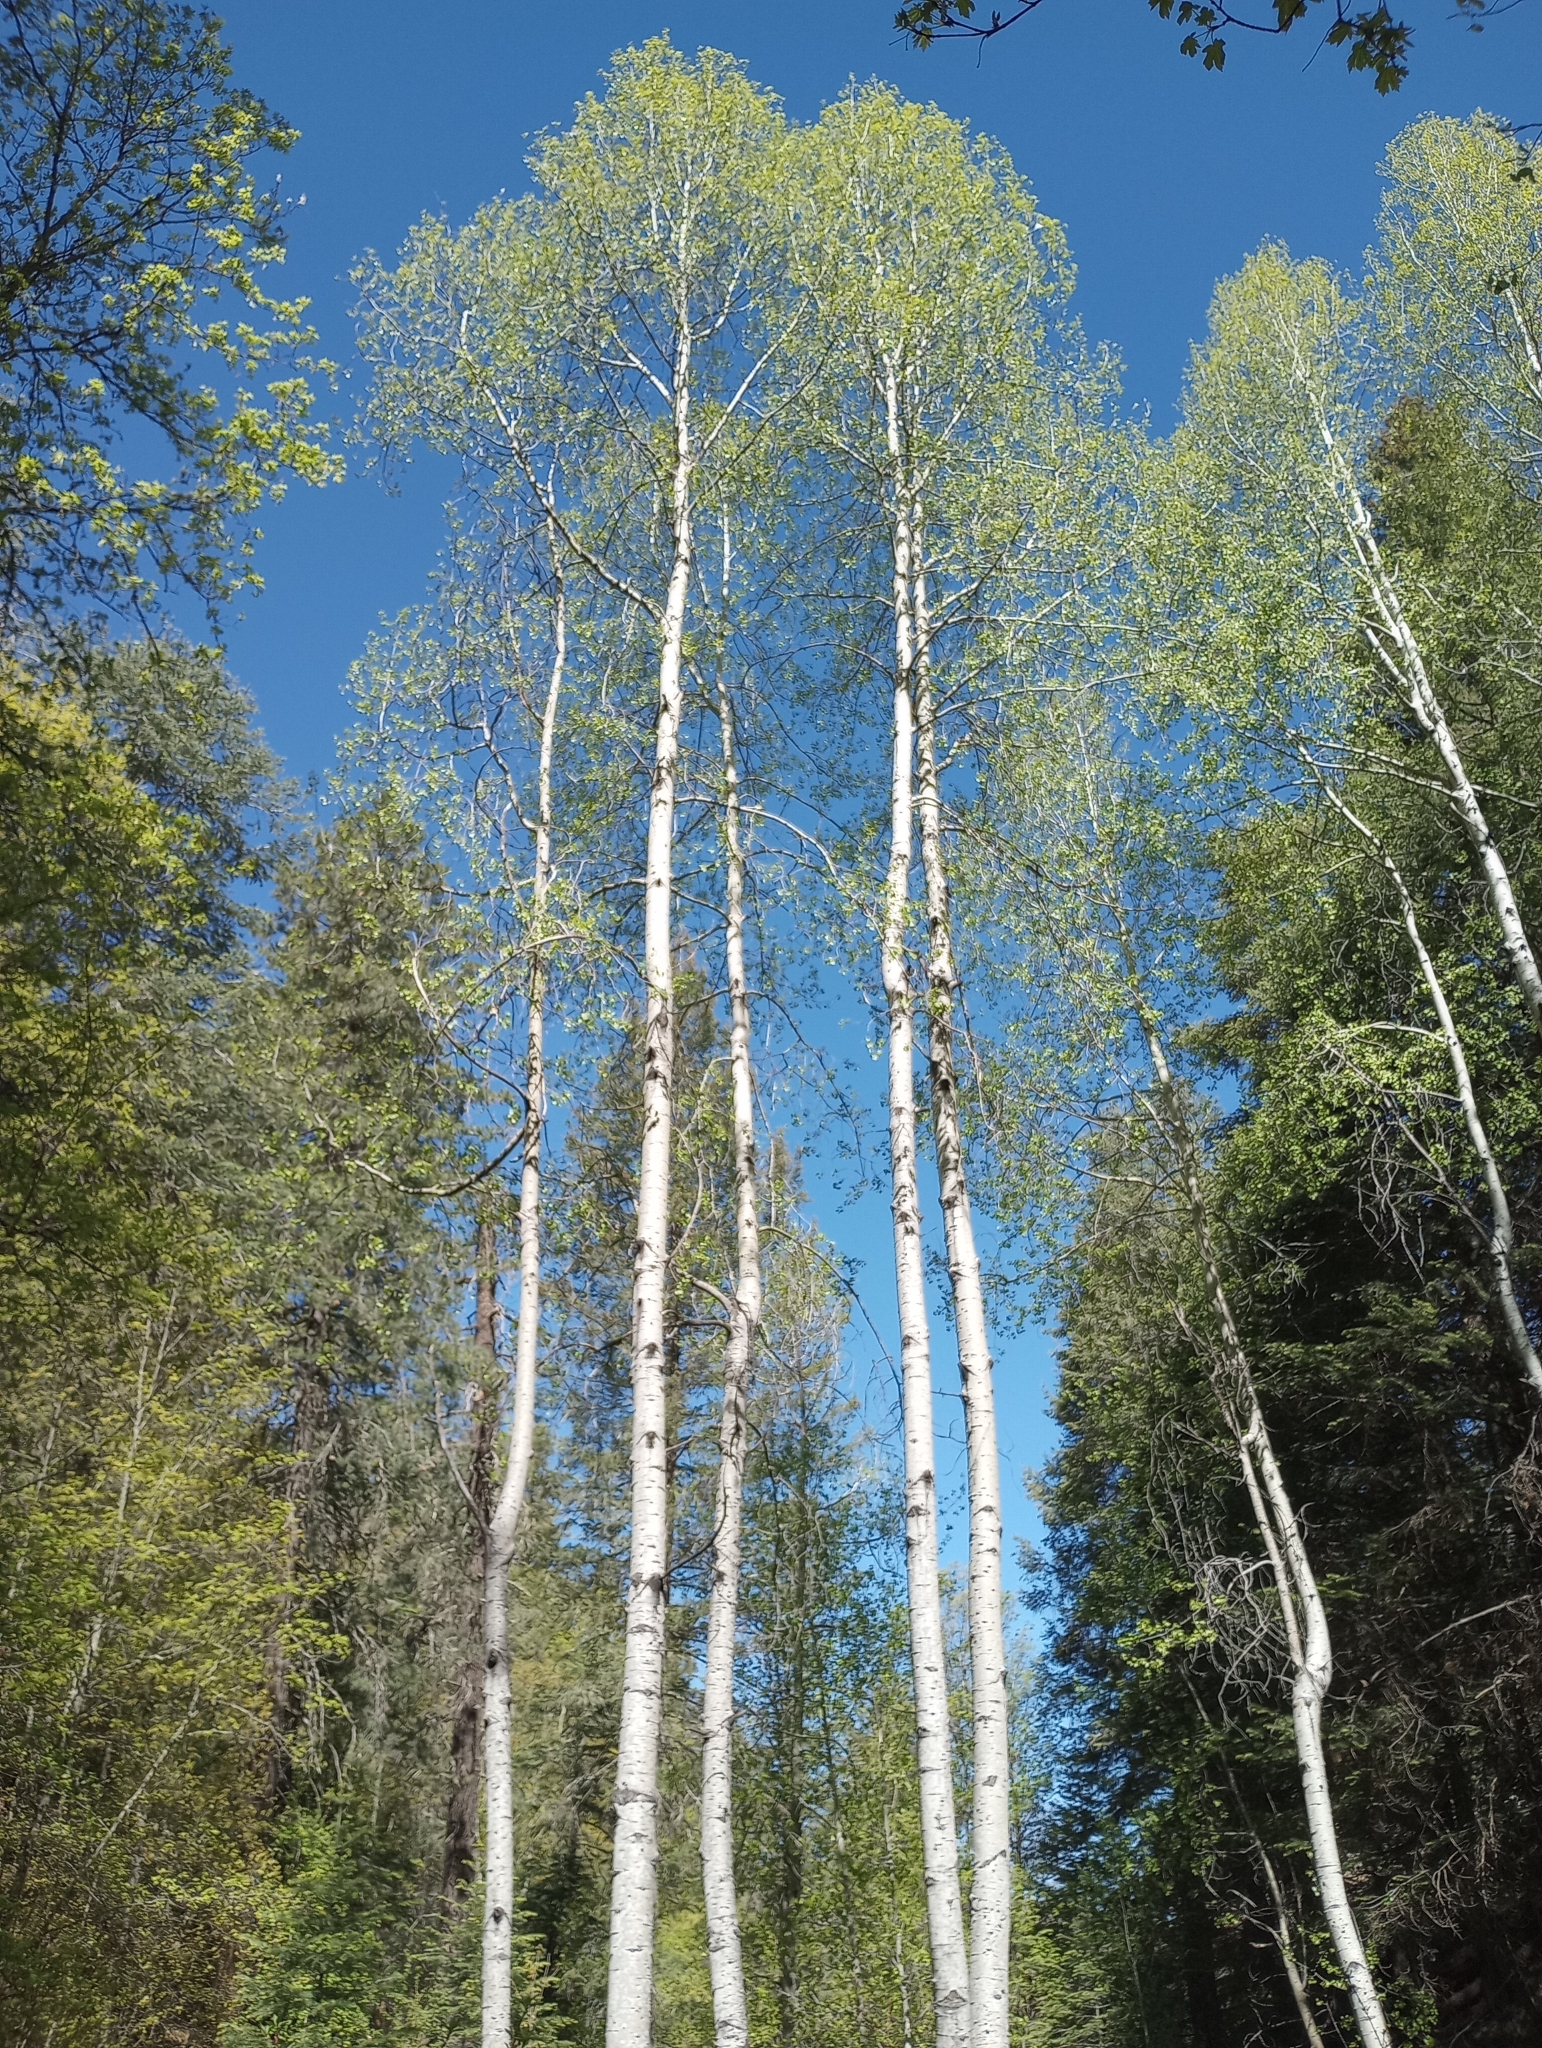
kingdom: Plantae
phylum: Tracheophyta
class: Magnoliopsida
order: Malpighiales
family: Salicaceae
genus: Populus
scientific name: Populus tremuloides
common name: Quaking aspen
